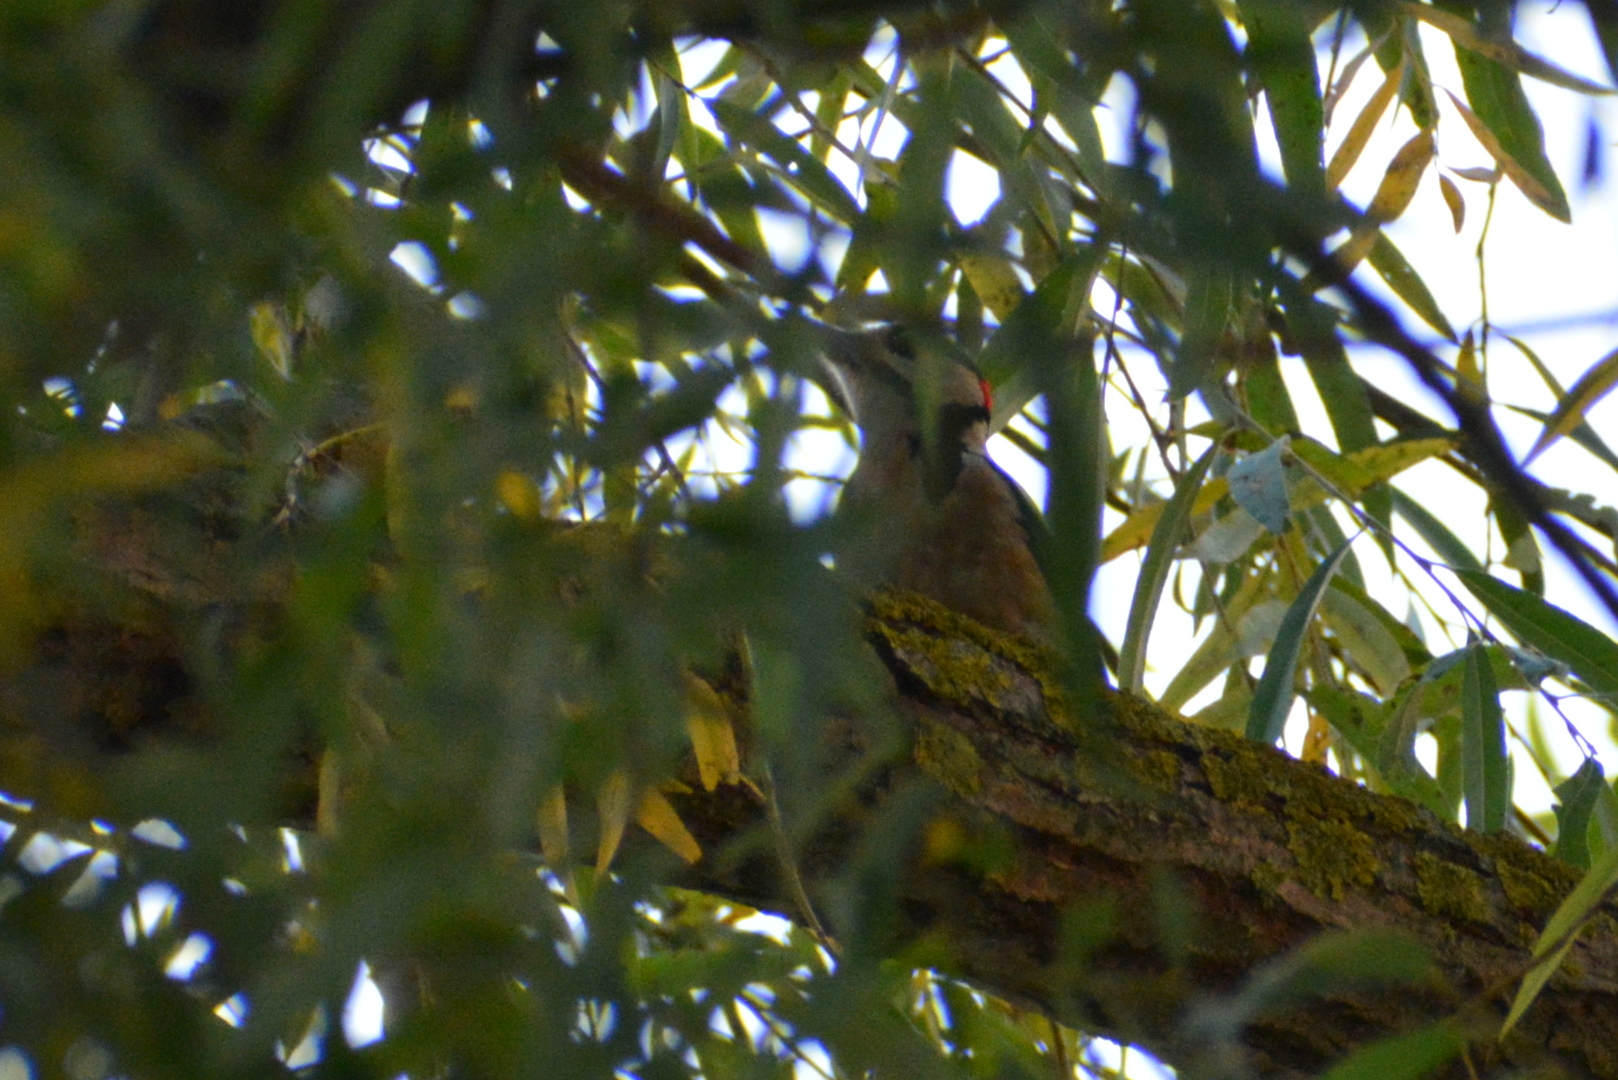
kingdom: Animalia
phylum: Chordata
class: Aves
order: Piciformes
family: Picidae
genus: Dendrocopos
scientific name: Dendrocopos major
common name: Great spotted woodpecker
